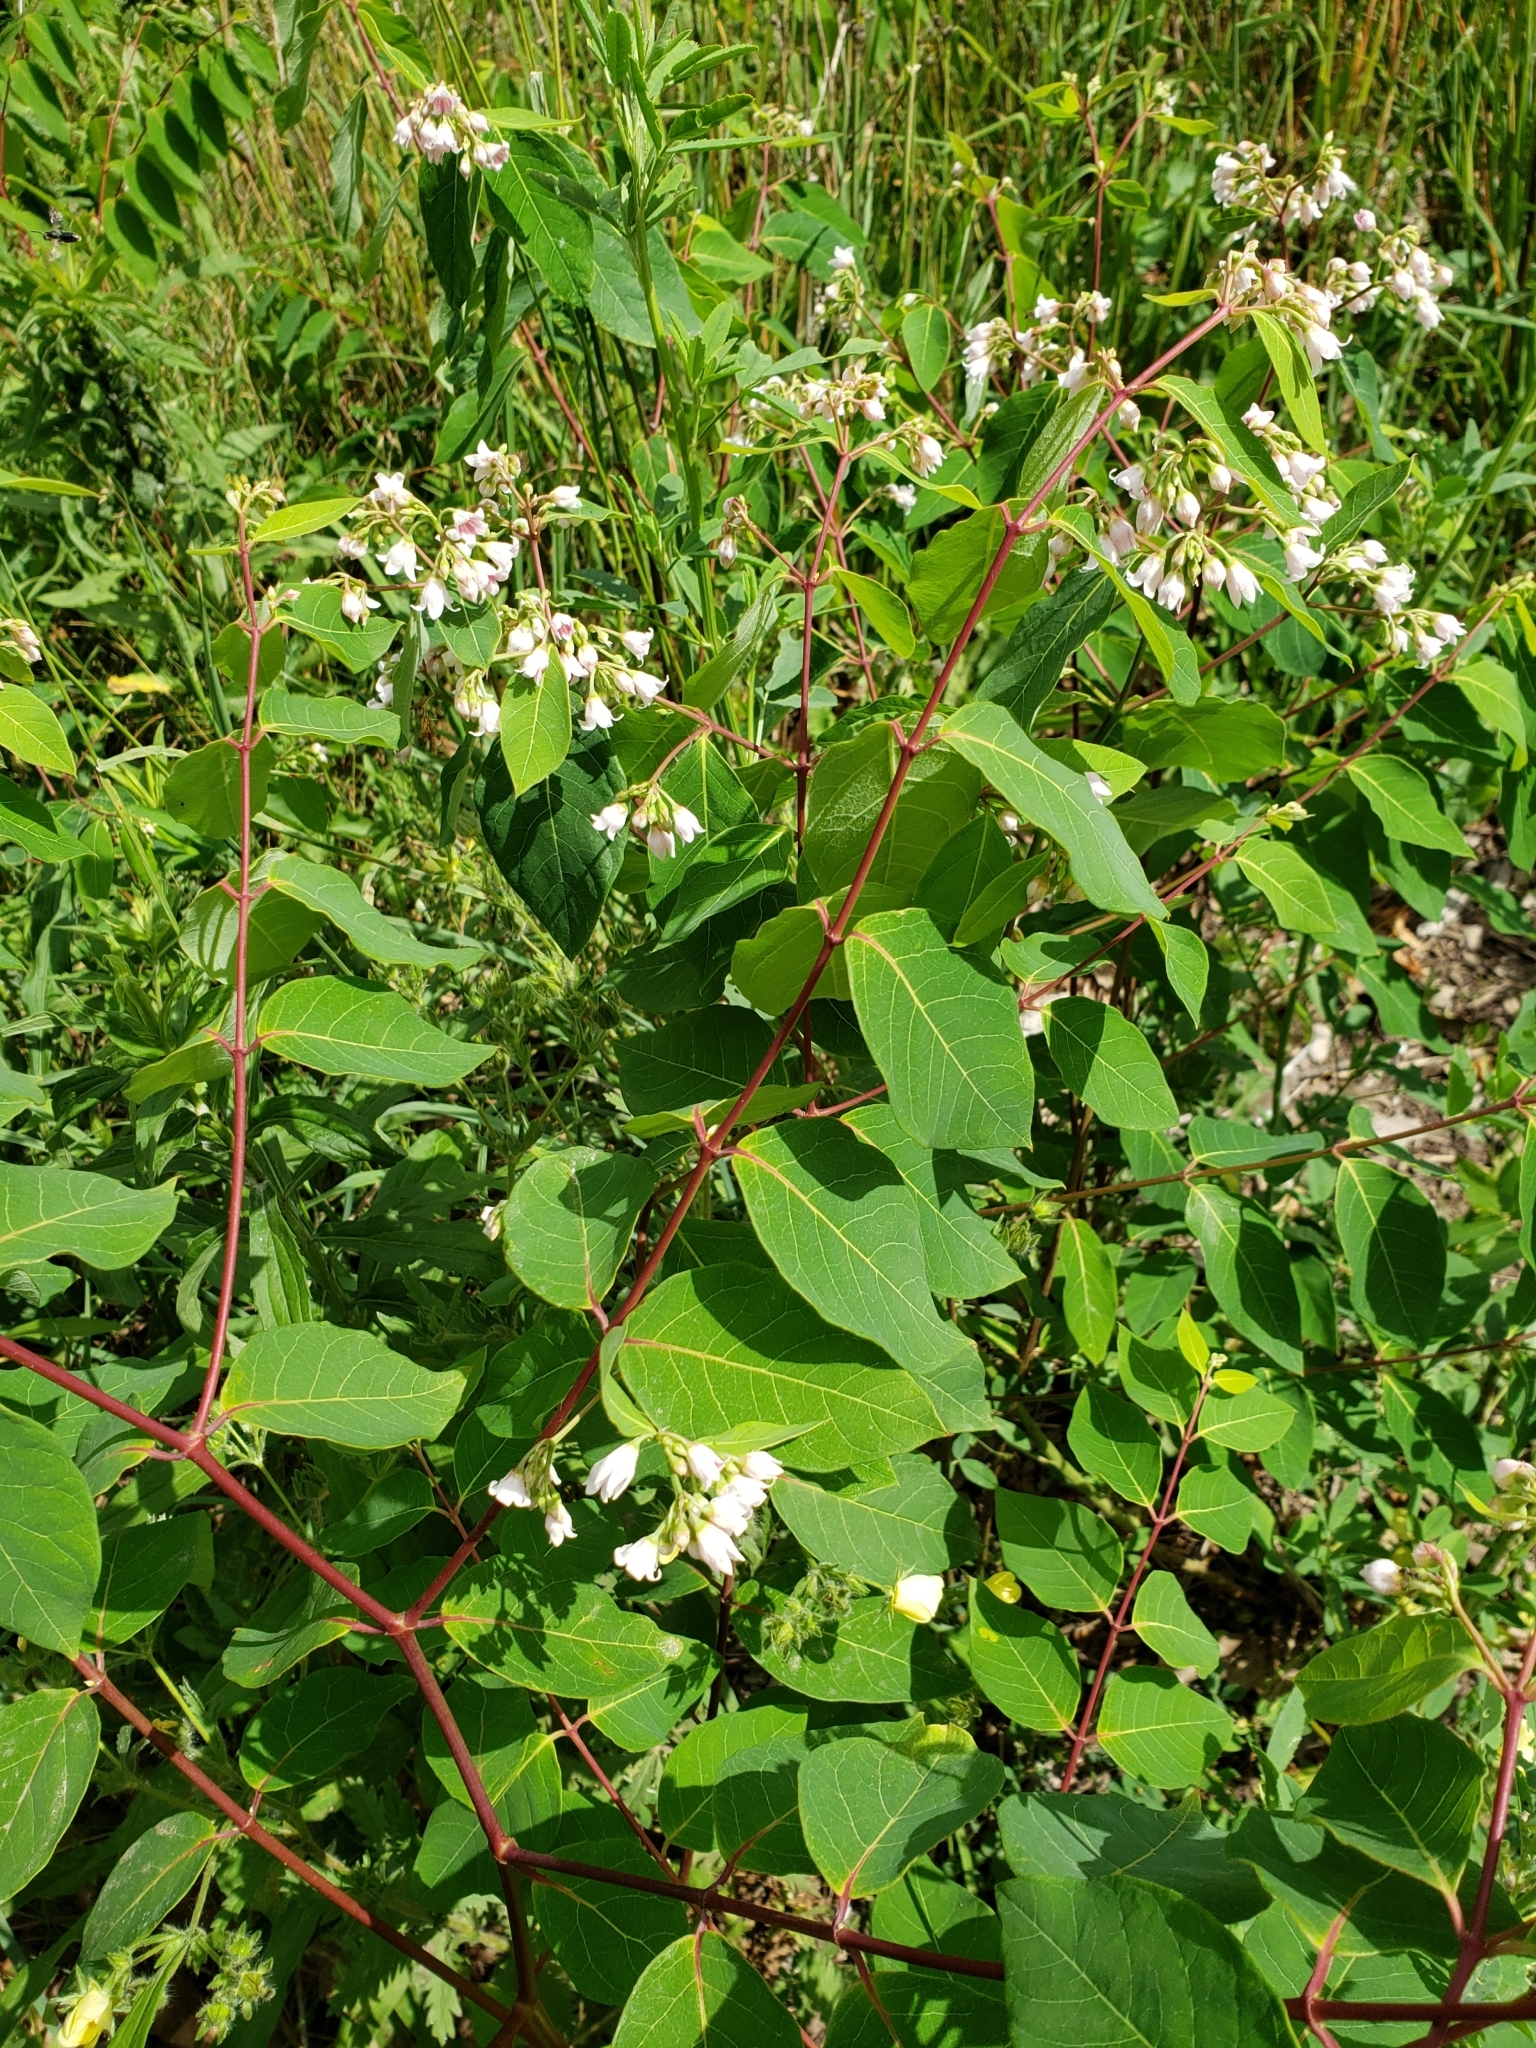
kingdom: Plantae
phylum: Tracheophyta
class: Magnoliopsida
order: Gentianales
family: Apocynaceae
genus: Apocynum
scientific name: Apocynum androsaemifolium
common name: Spreading dogbane
